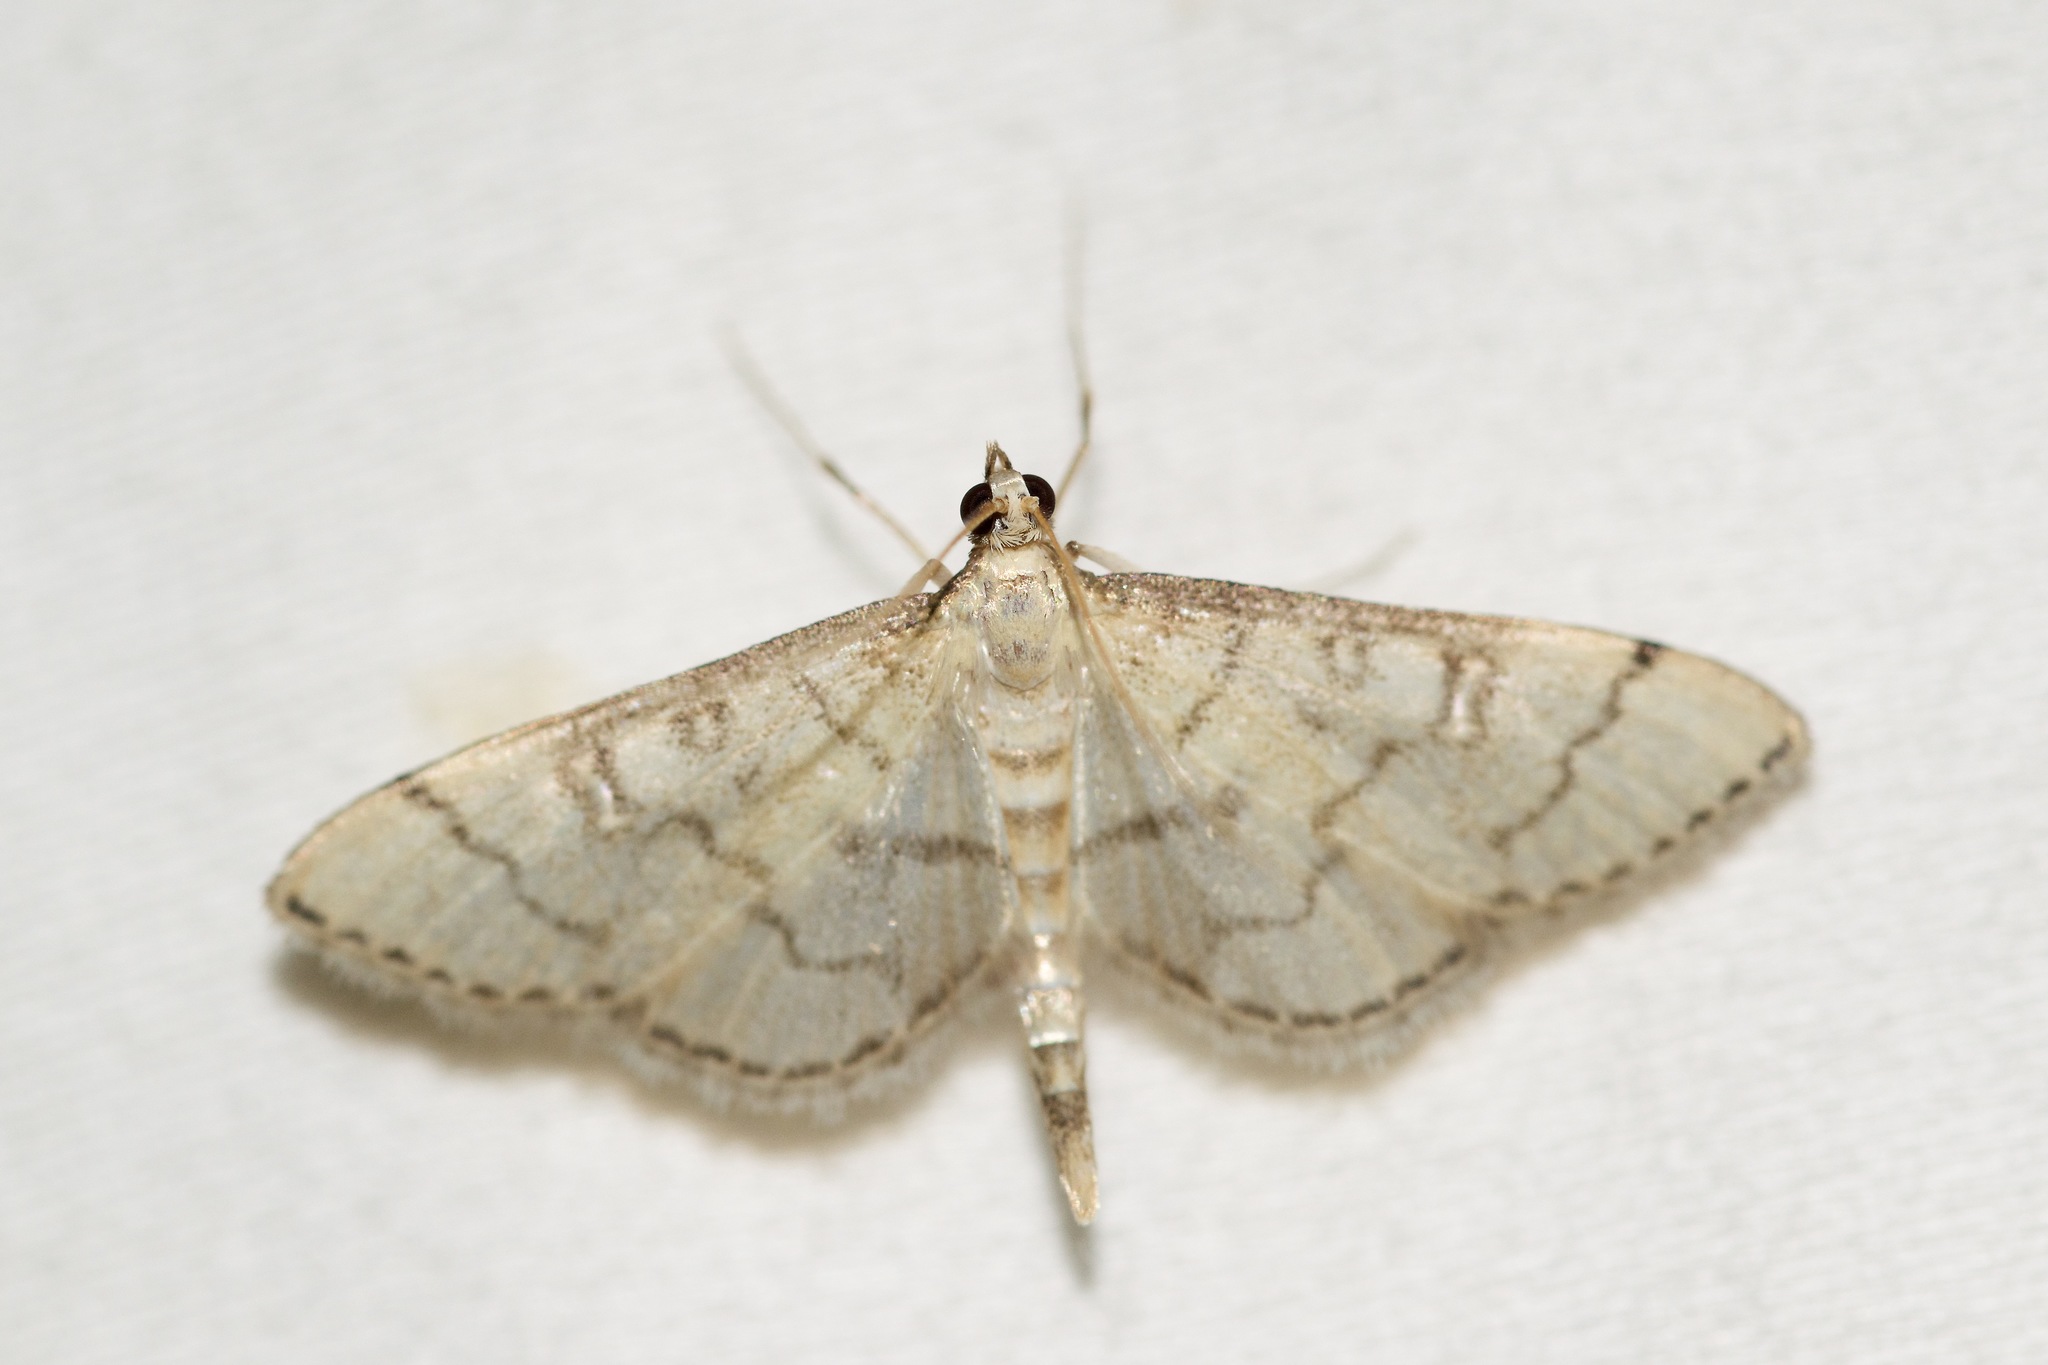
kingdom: Animalia
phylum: Arthropoda
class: Insecta
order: Lepidoptera
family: Crambidae
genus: Lamprosema
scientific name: Lamprosema Blepharomastix ranalis
